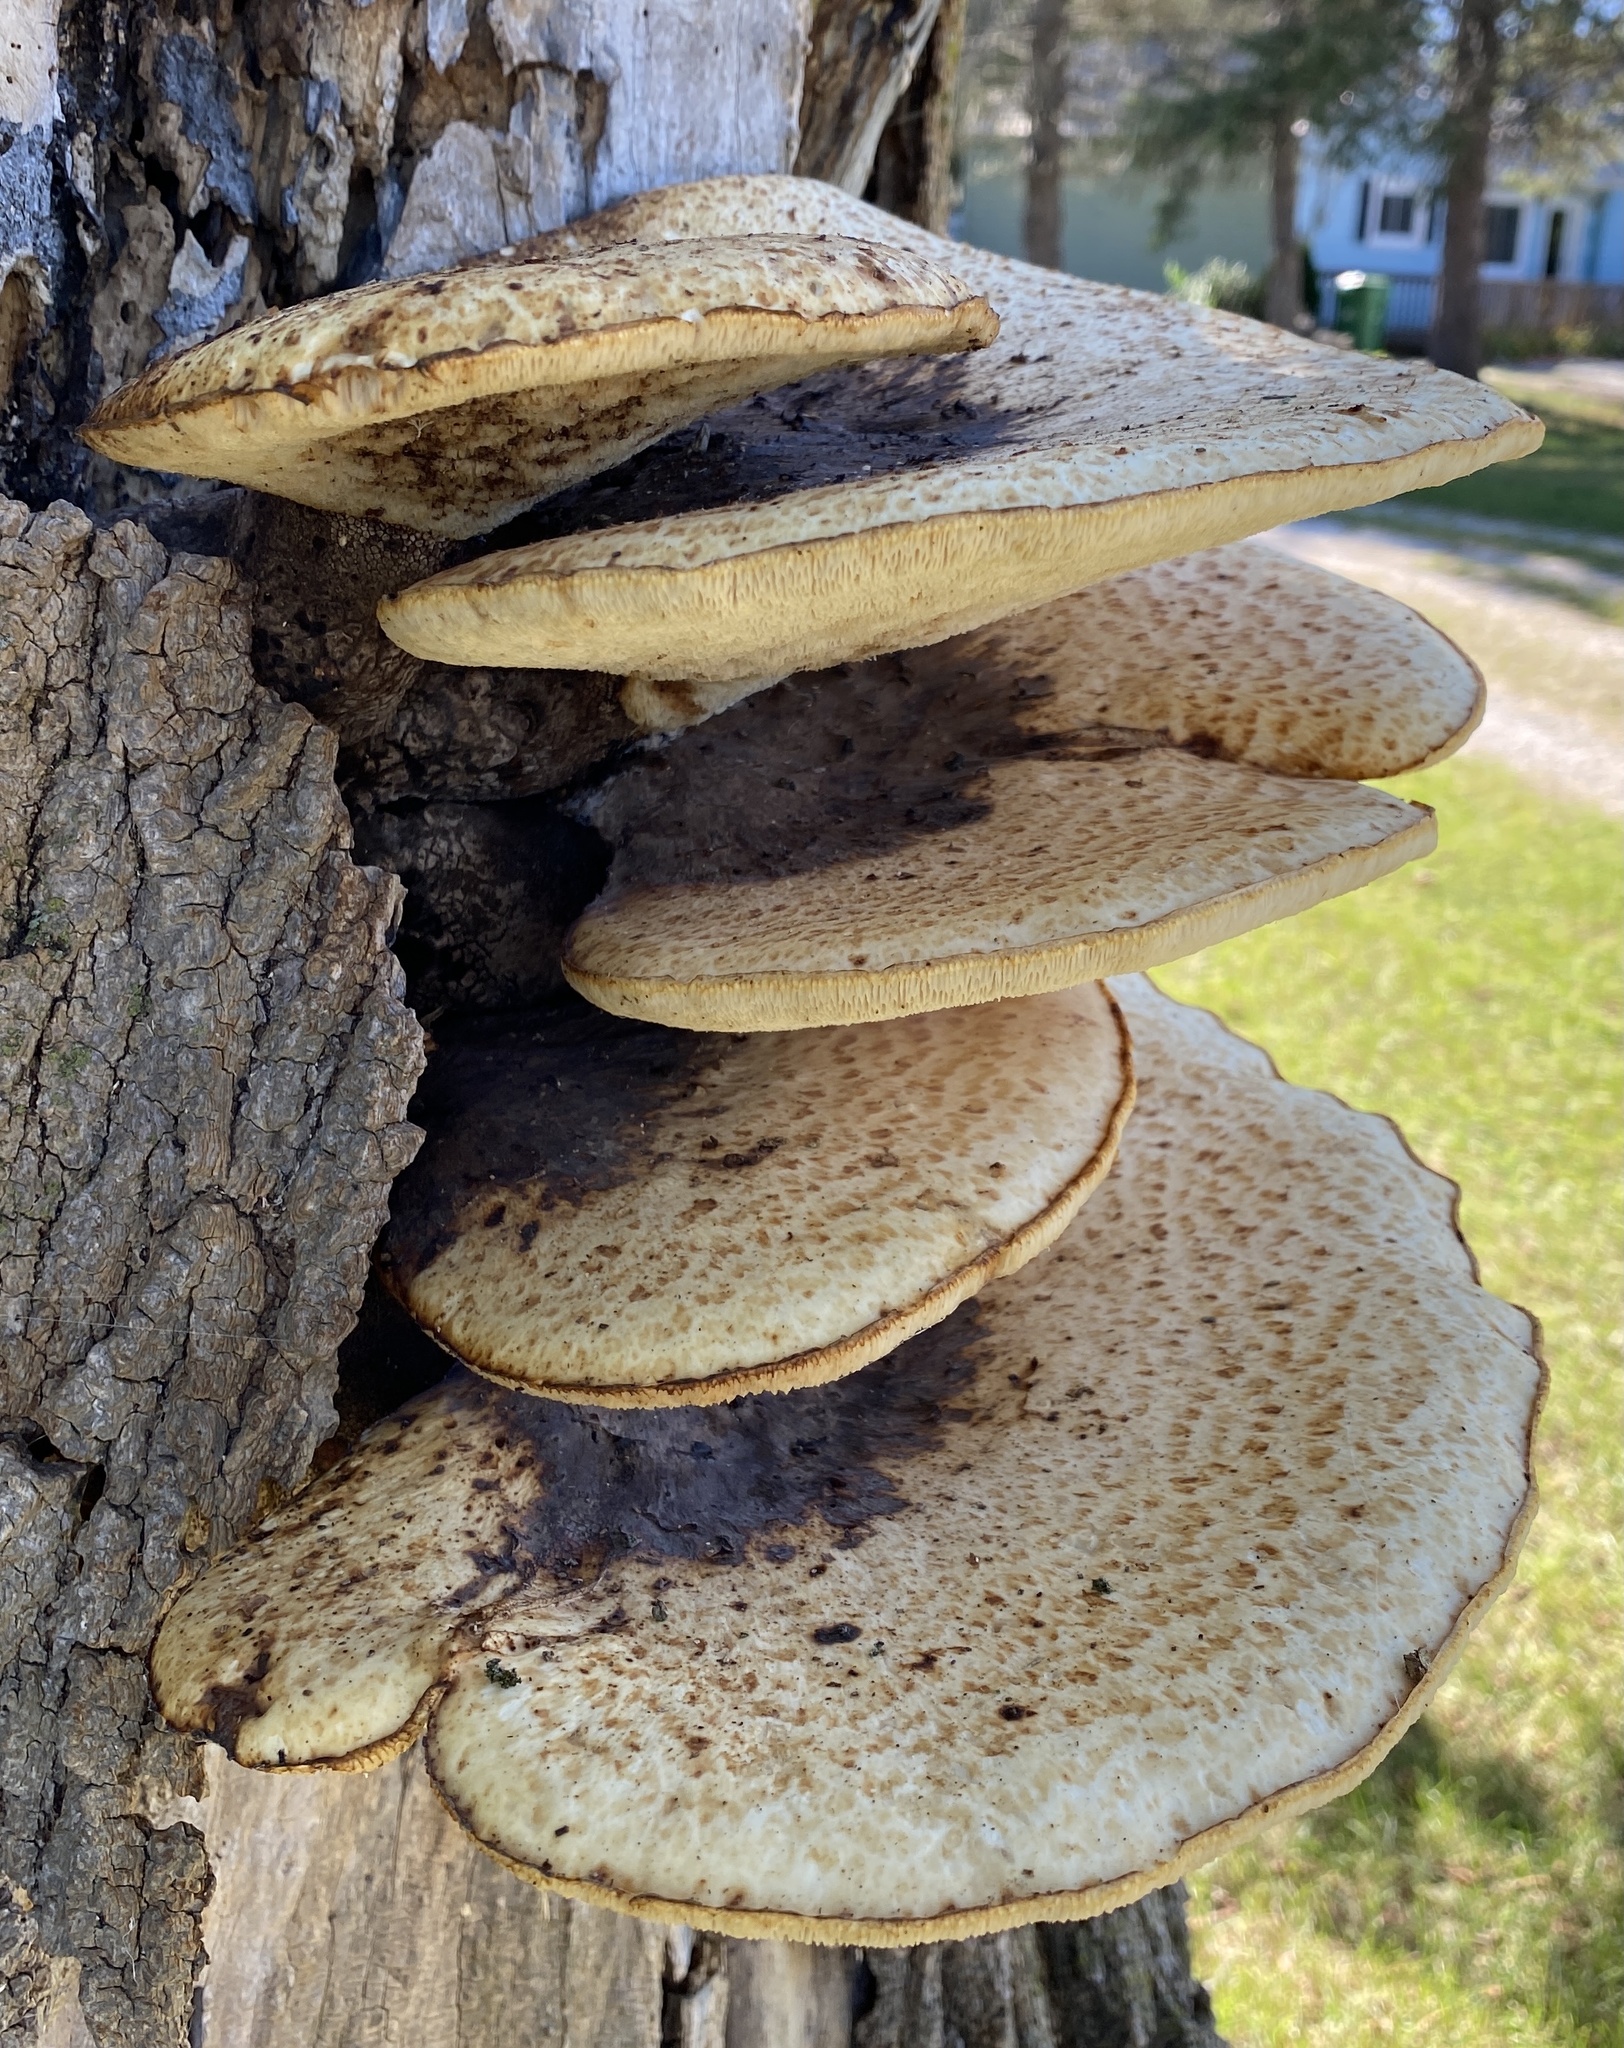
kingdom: Fungi
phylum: Basidiomycota
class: Agaricomycetes
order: Polyporales
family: Polyporaceae
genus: Cerioporus
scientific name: Cerioporus squamosus
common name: Dryad's saddle
